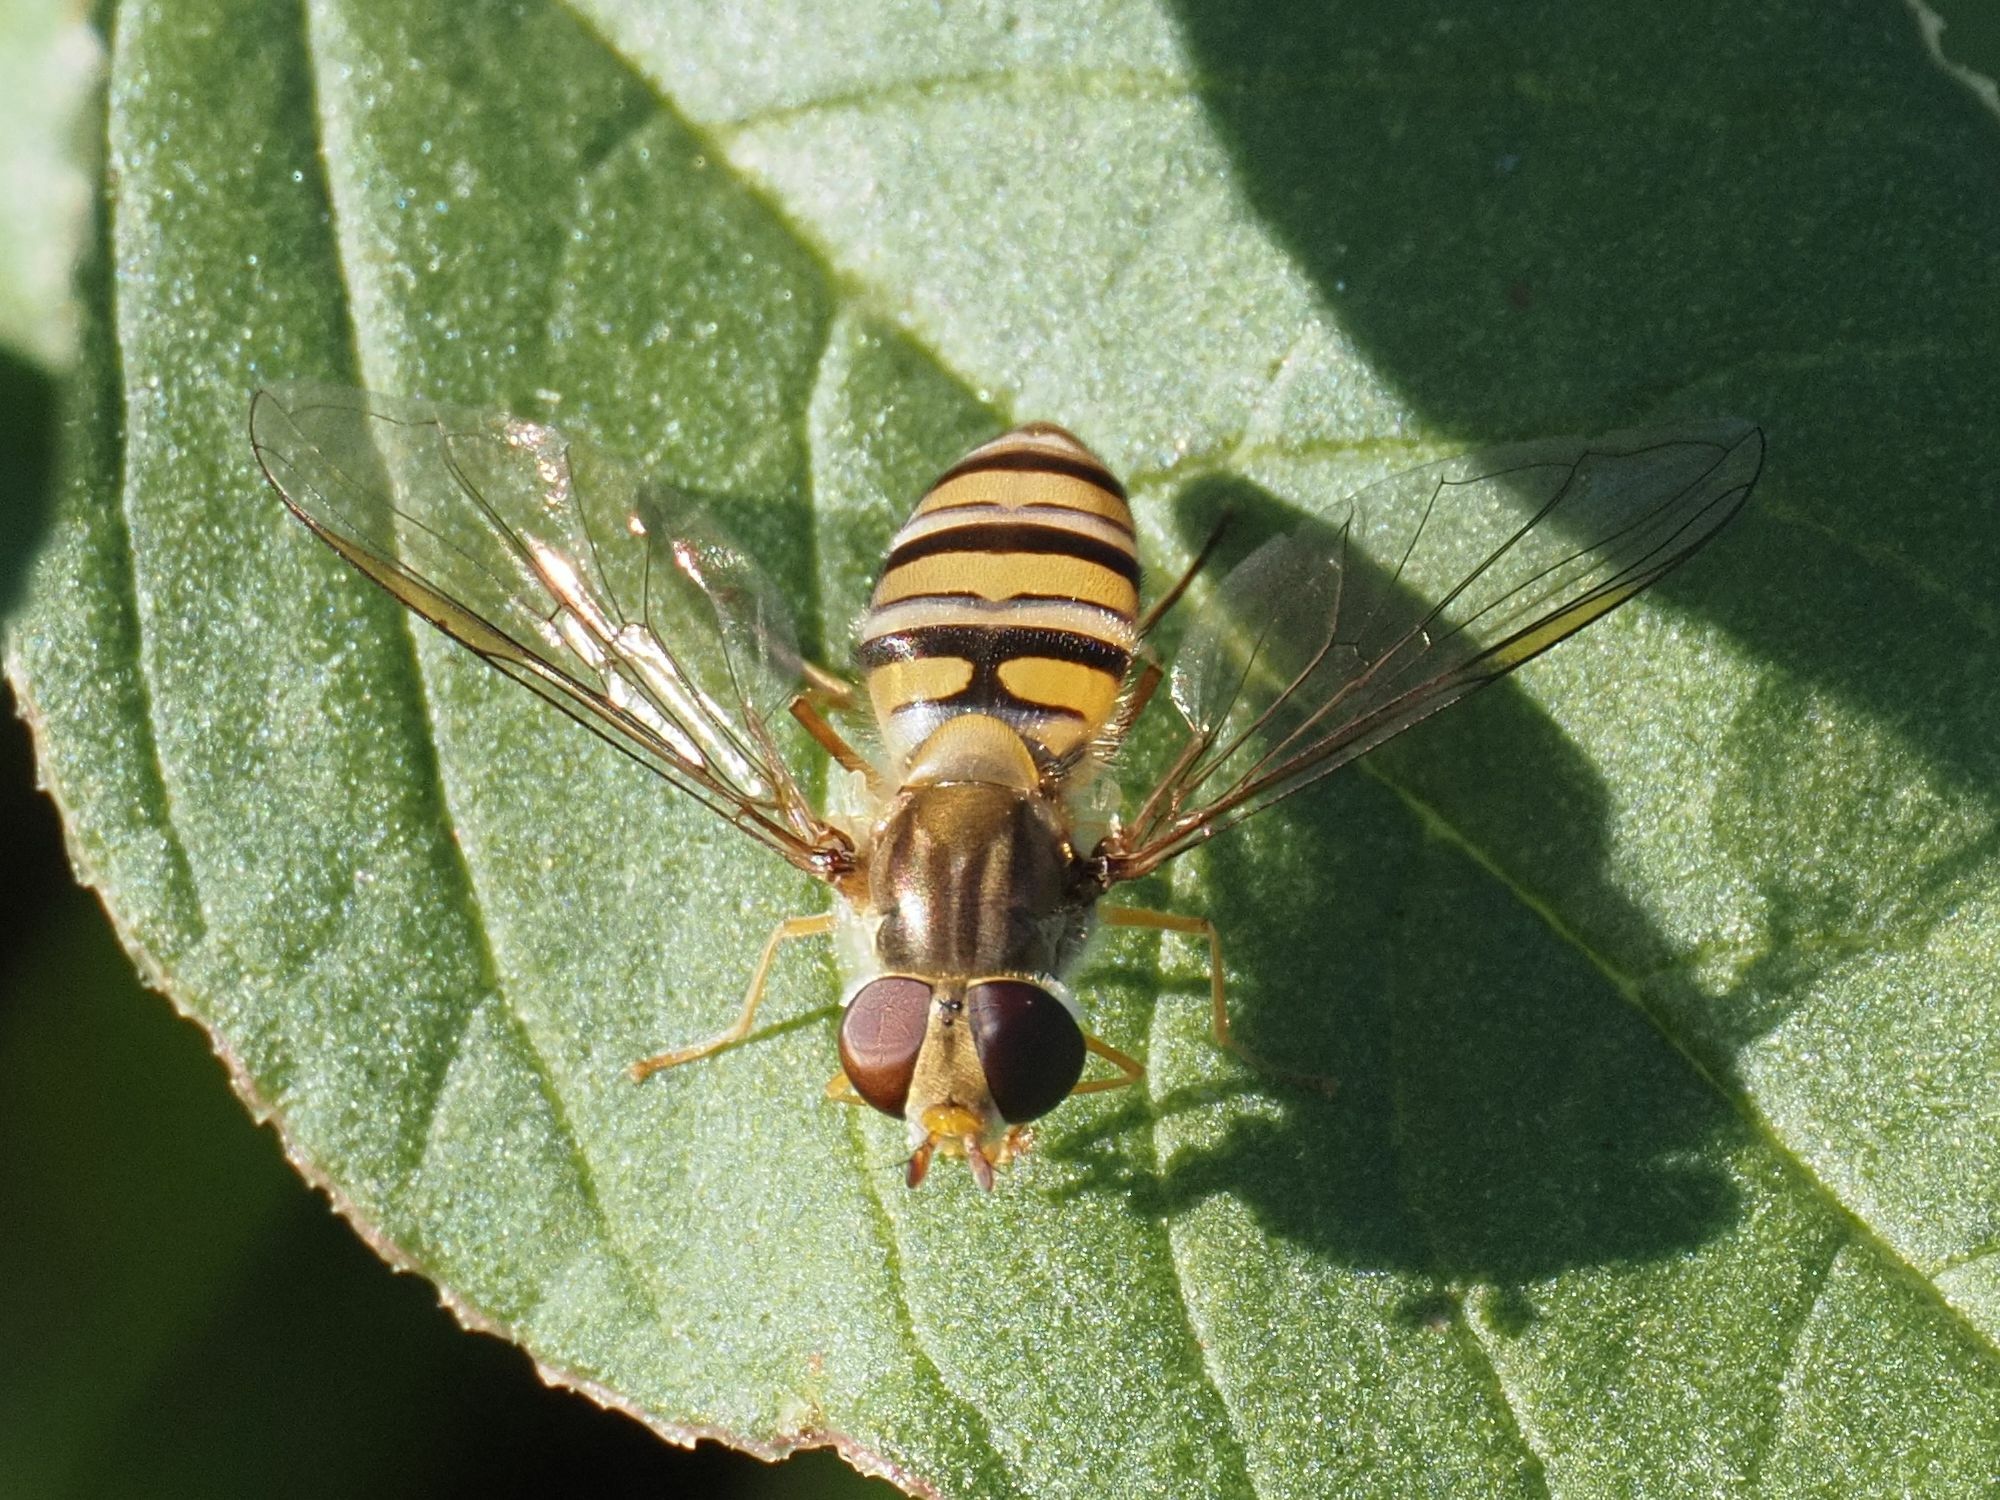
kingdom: Animalia
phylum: Arthropoda
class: Insecta
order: Diptera
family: Syrphidae
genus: Episyrphus
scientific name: Episyrphus balteatus
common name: Marmalade hoverfly
